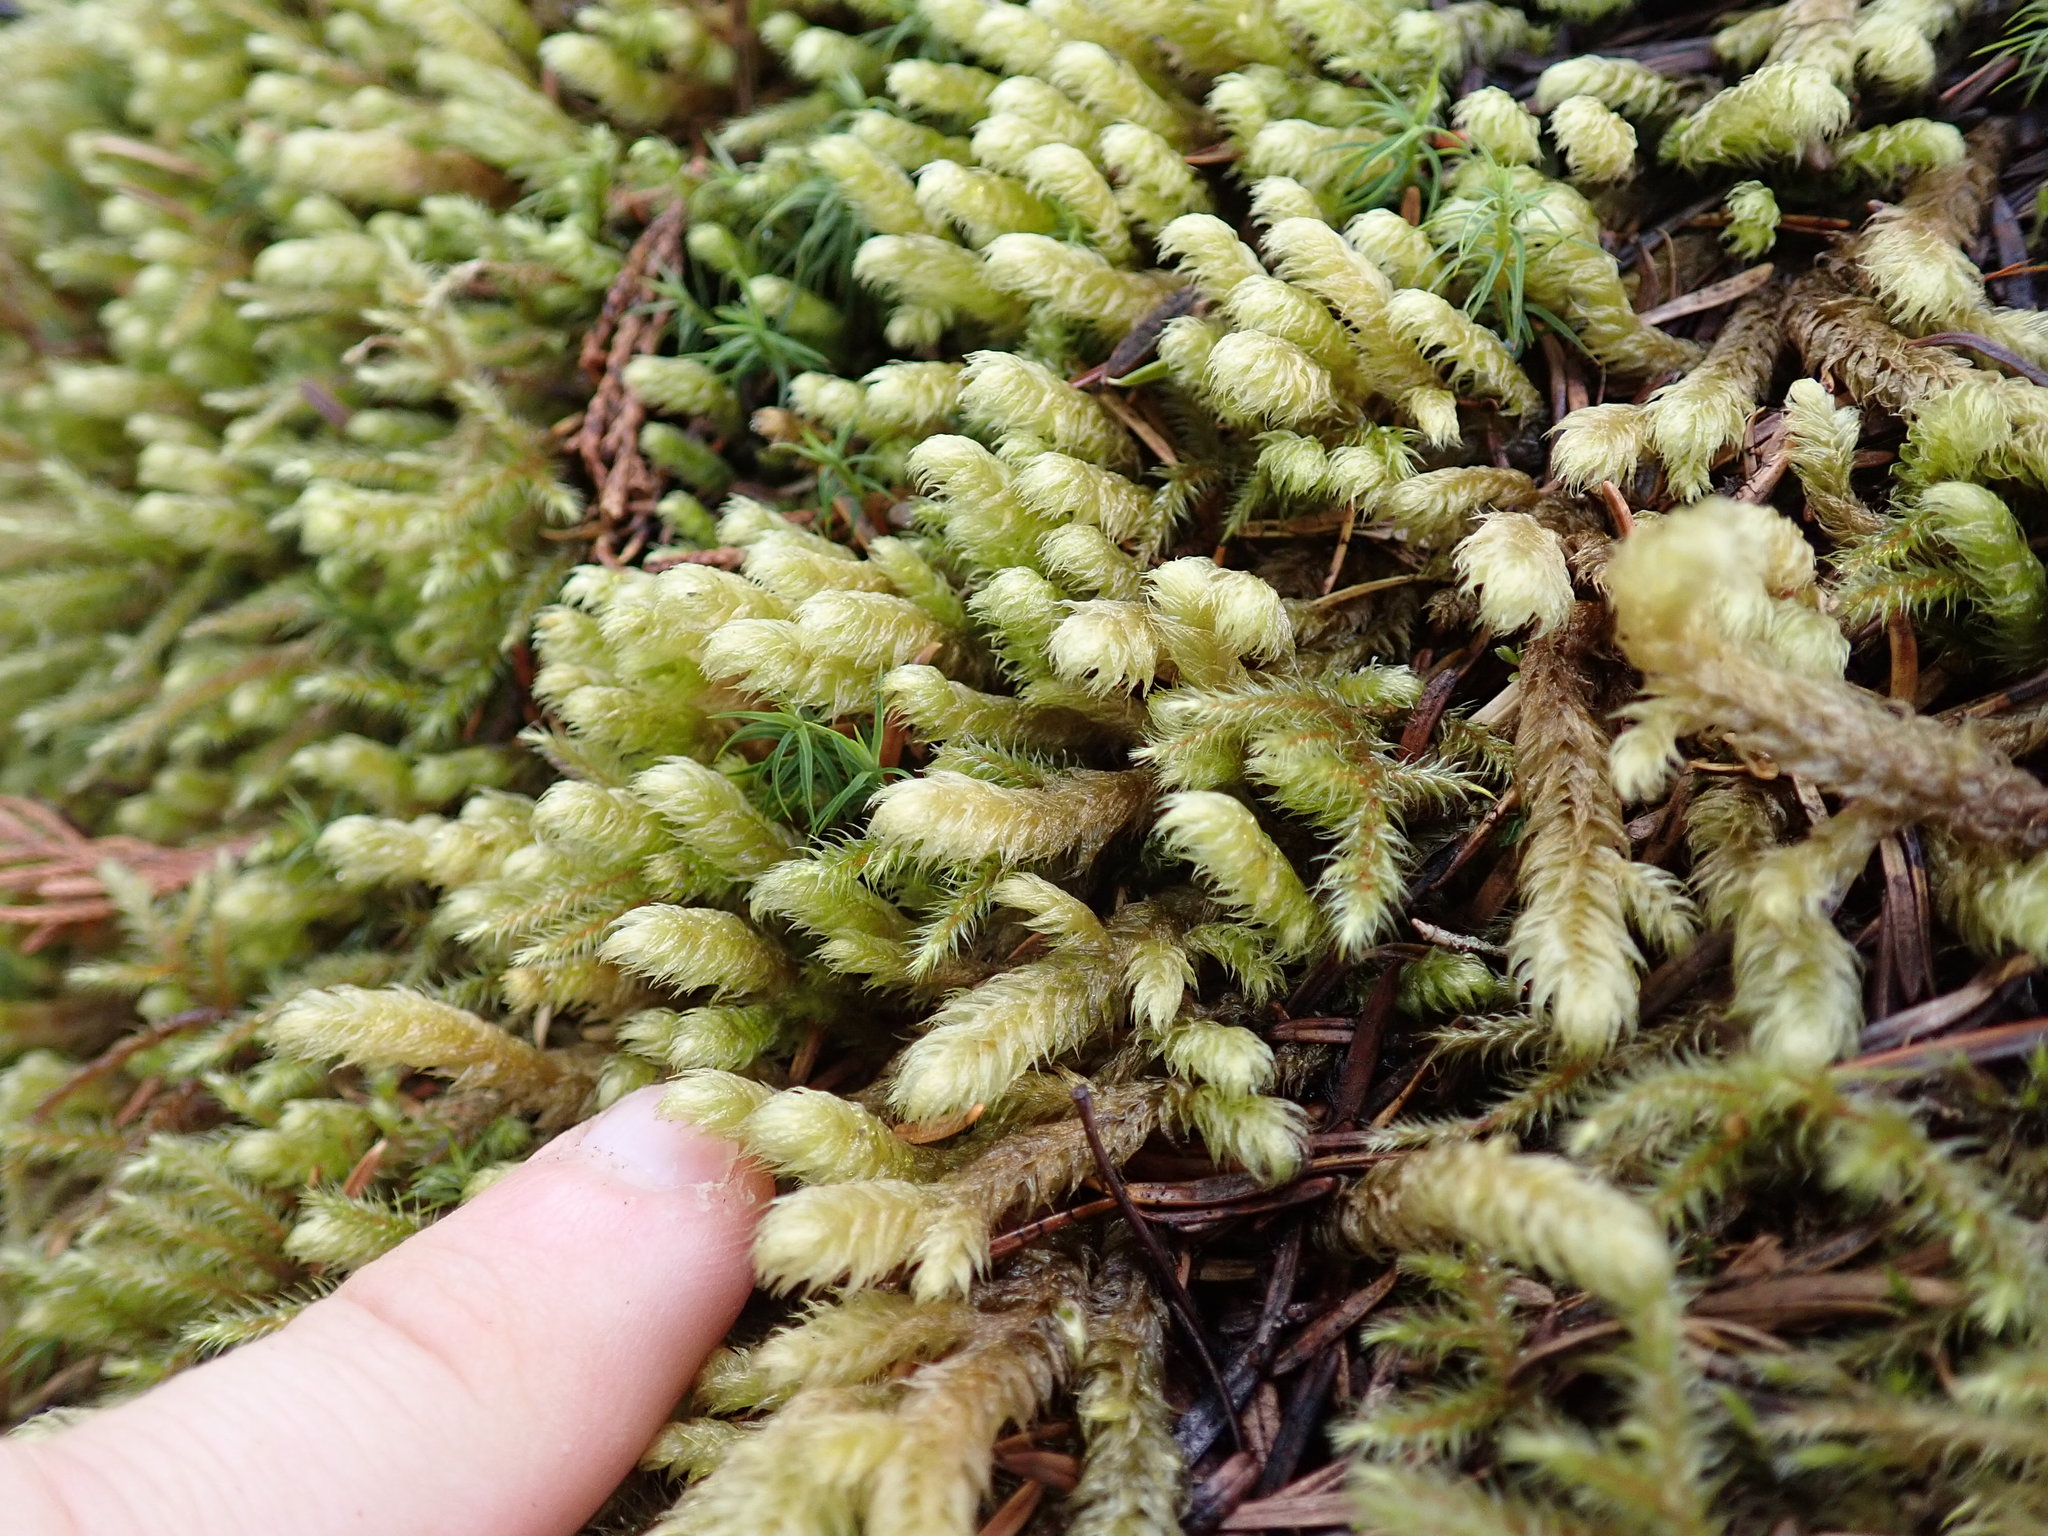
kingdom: Plantae
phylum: Bryophyta
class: Bryopsida
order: Hypnales
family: Hylocomiaceae
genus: Rhytidiopsis
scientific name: Rhytidiopsis robusta
